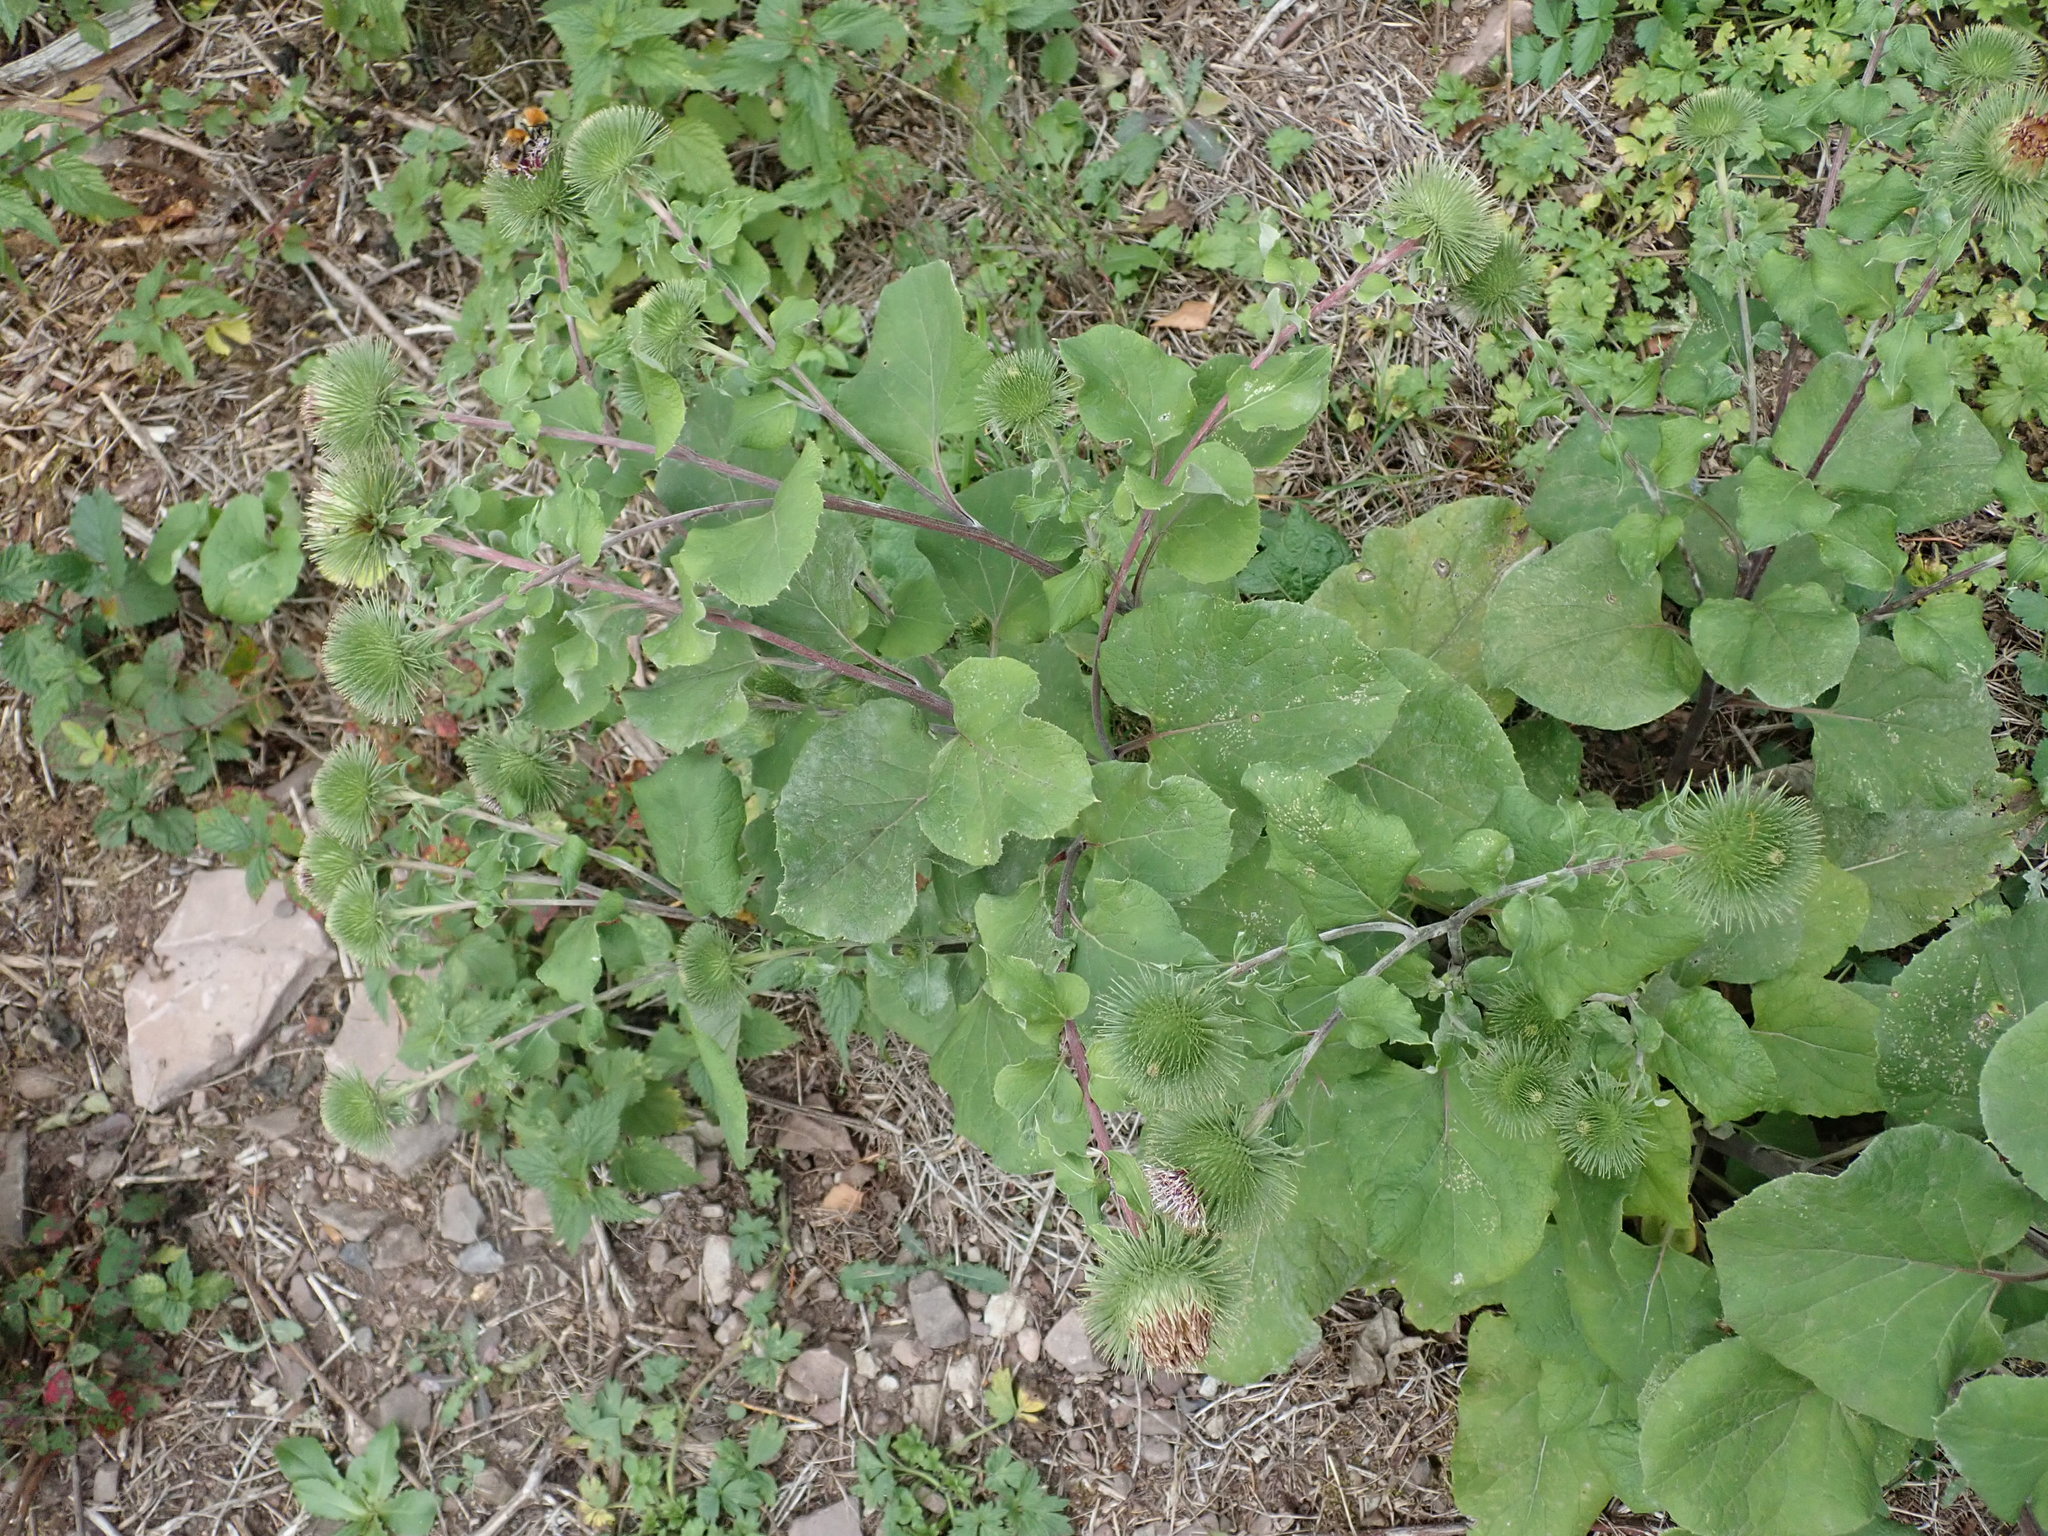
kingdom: Plantae
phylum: Tracheophyta
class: Magnoliopsida
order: Asterales
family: Asteraceae
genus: Arctium
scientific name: Arctium lappa
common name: Greater burdock
